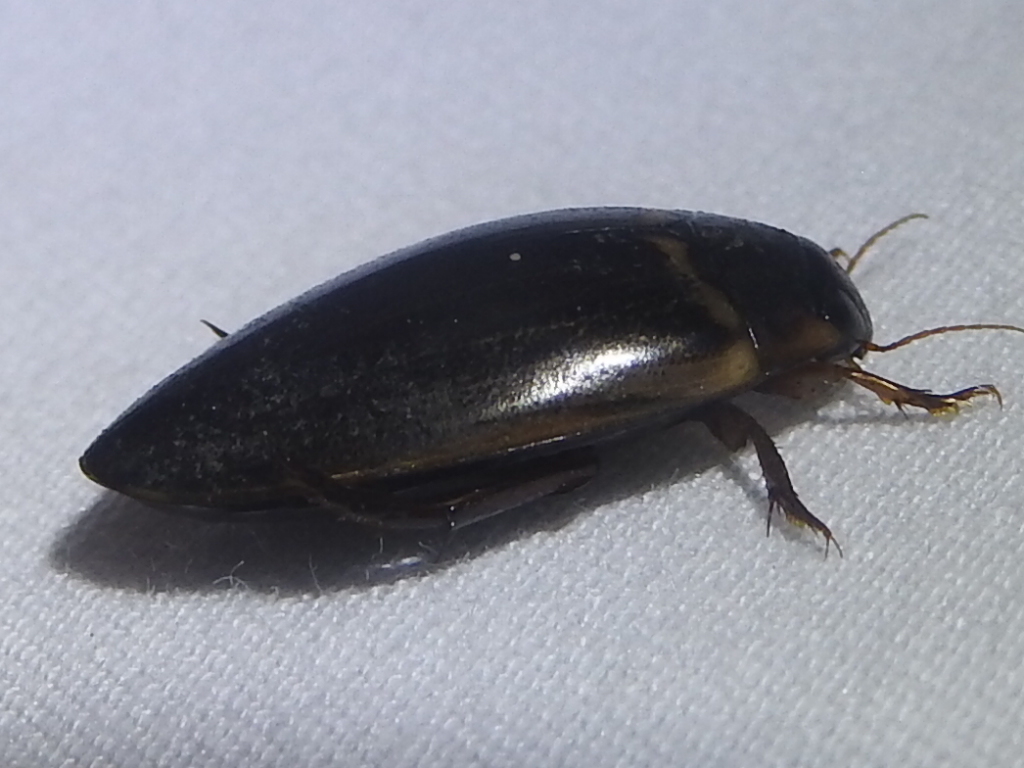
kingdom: Animalia
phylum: Arthropoda
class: Insecta
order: Coleoptera
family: Dytiscidae
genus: Meridiorhantus
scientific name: Meridiorhantus calidus
